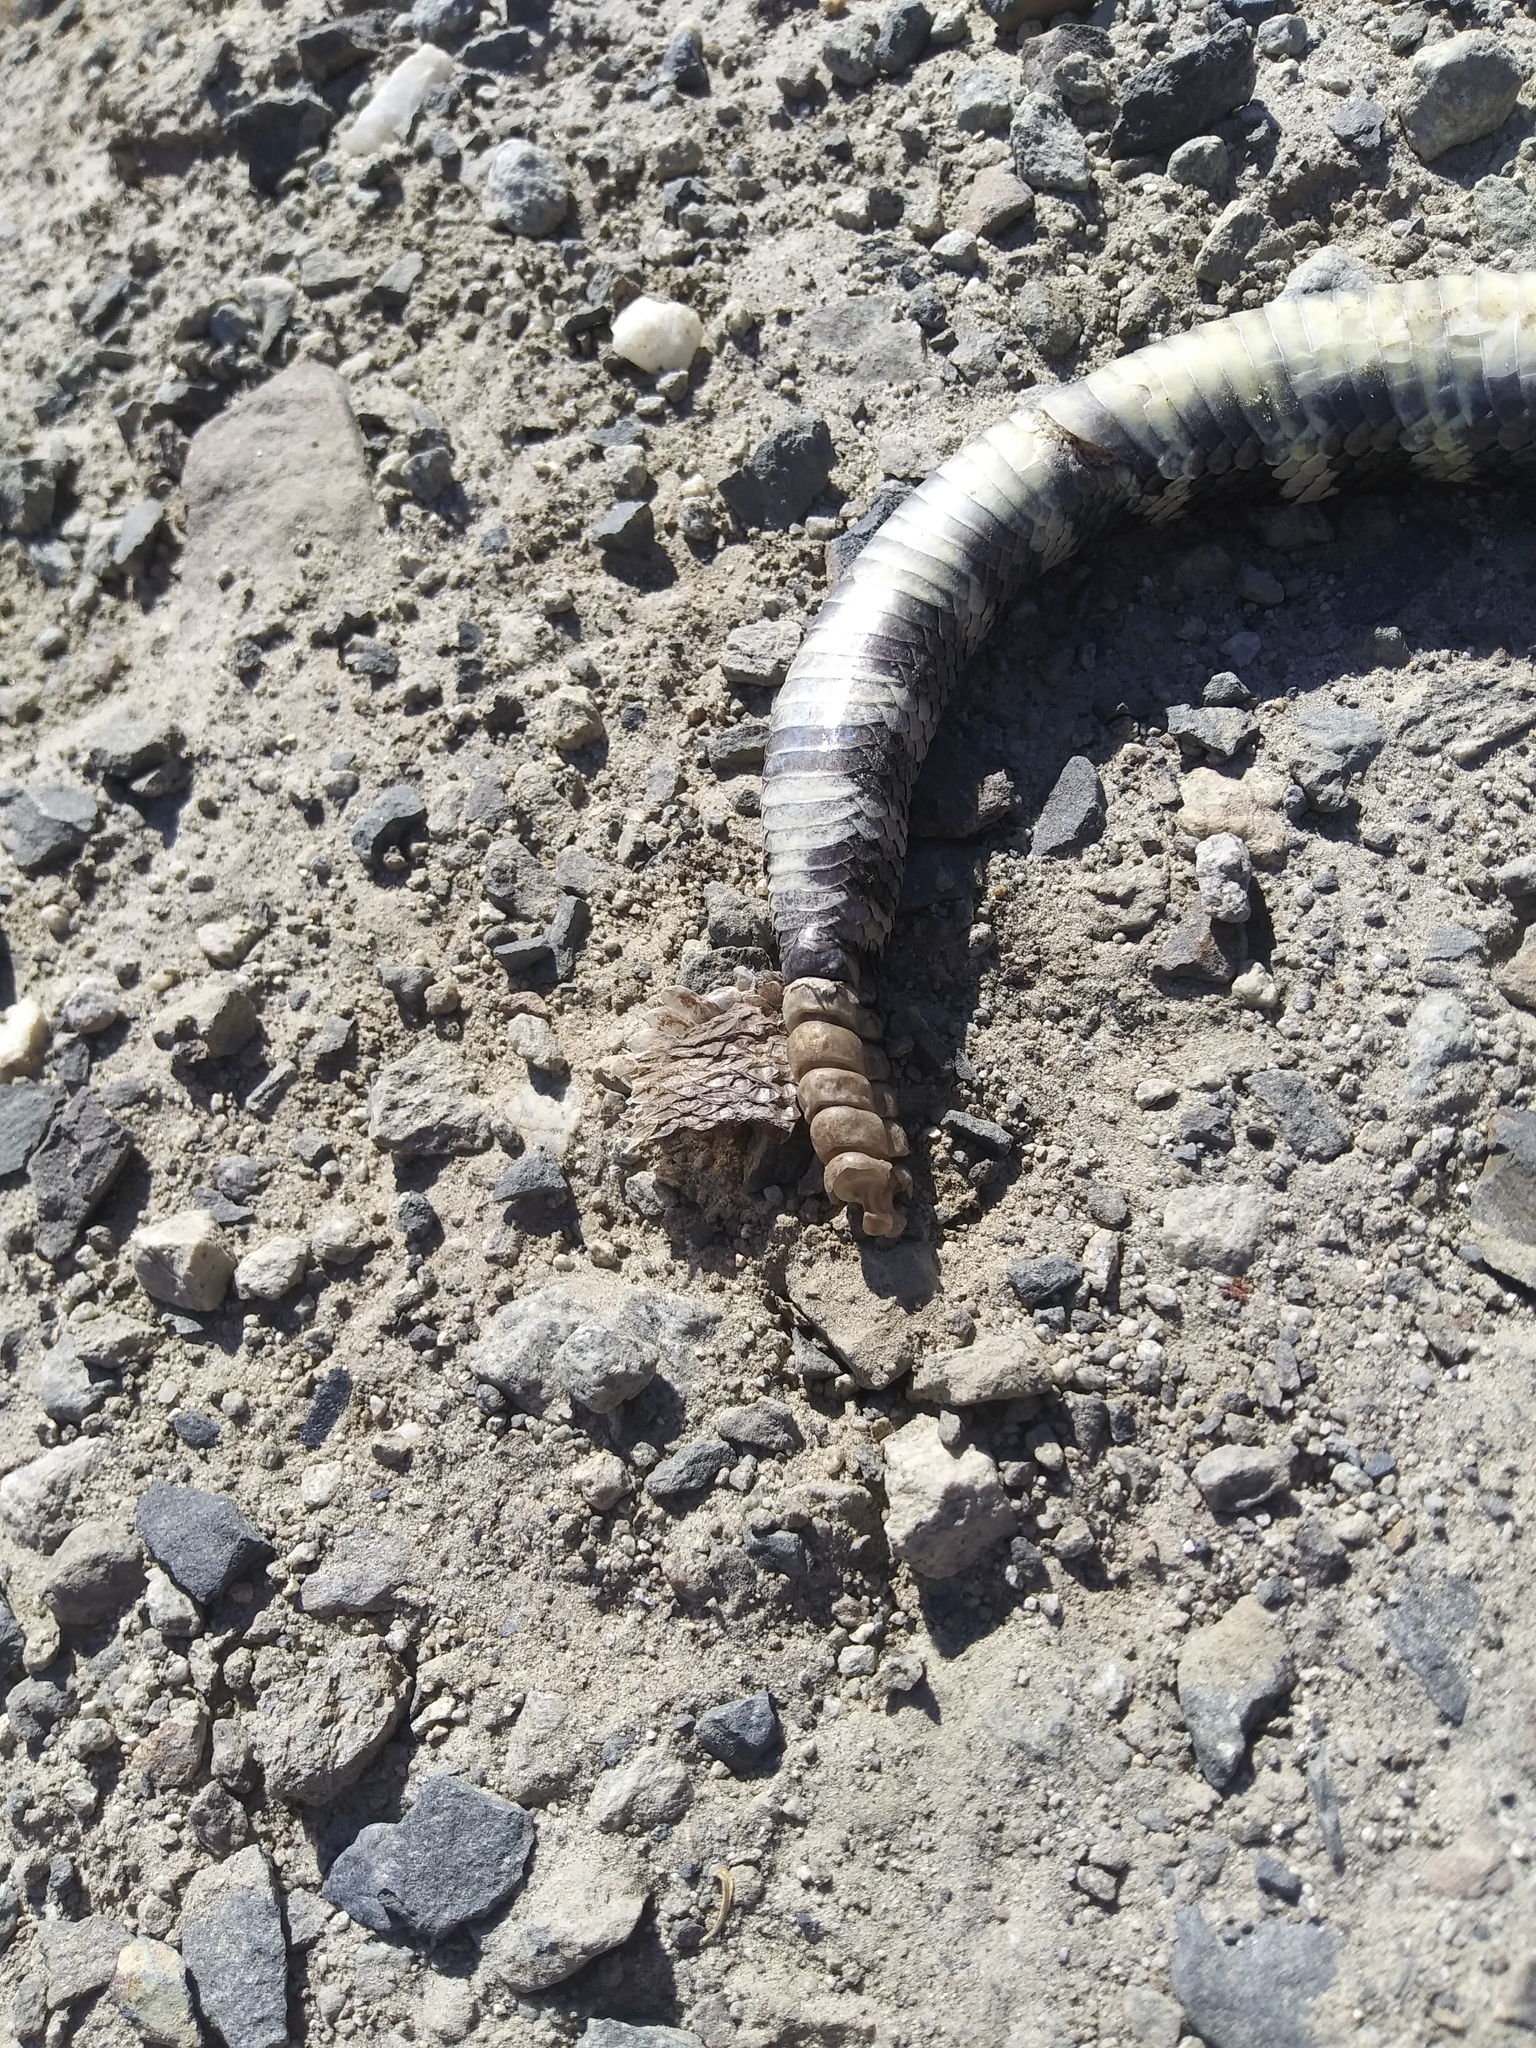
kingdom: Animalia
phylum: Chordata
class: Squamata
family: Viperidae
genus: Crotalus
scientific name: Crotalus oreganus
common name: Abyssus
